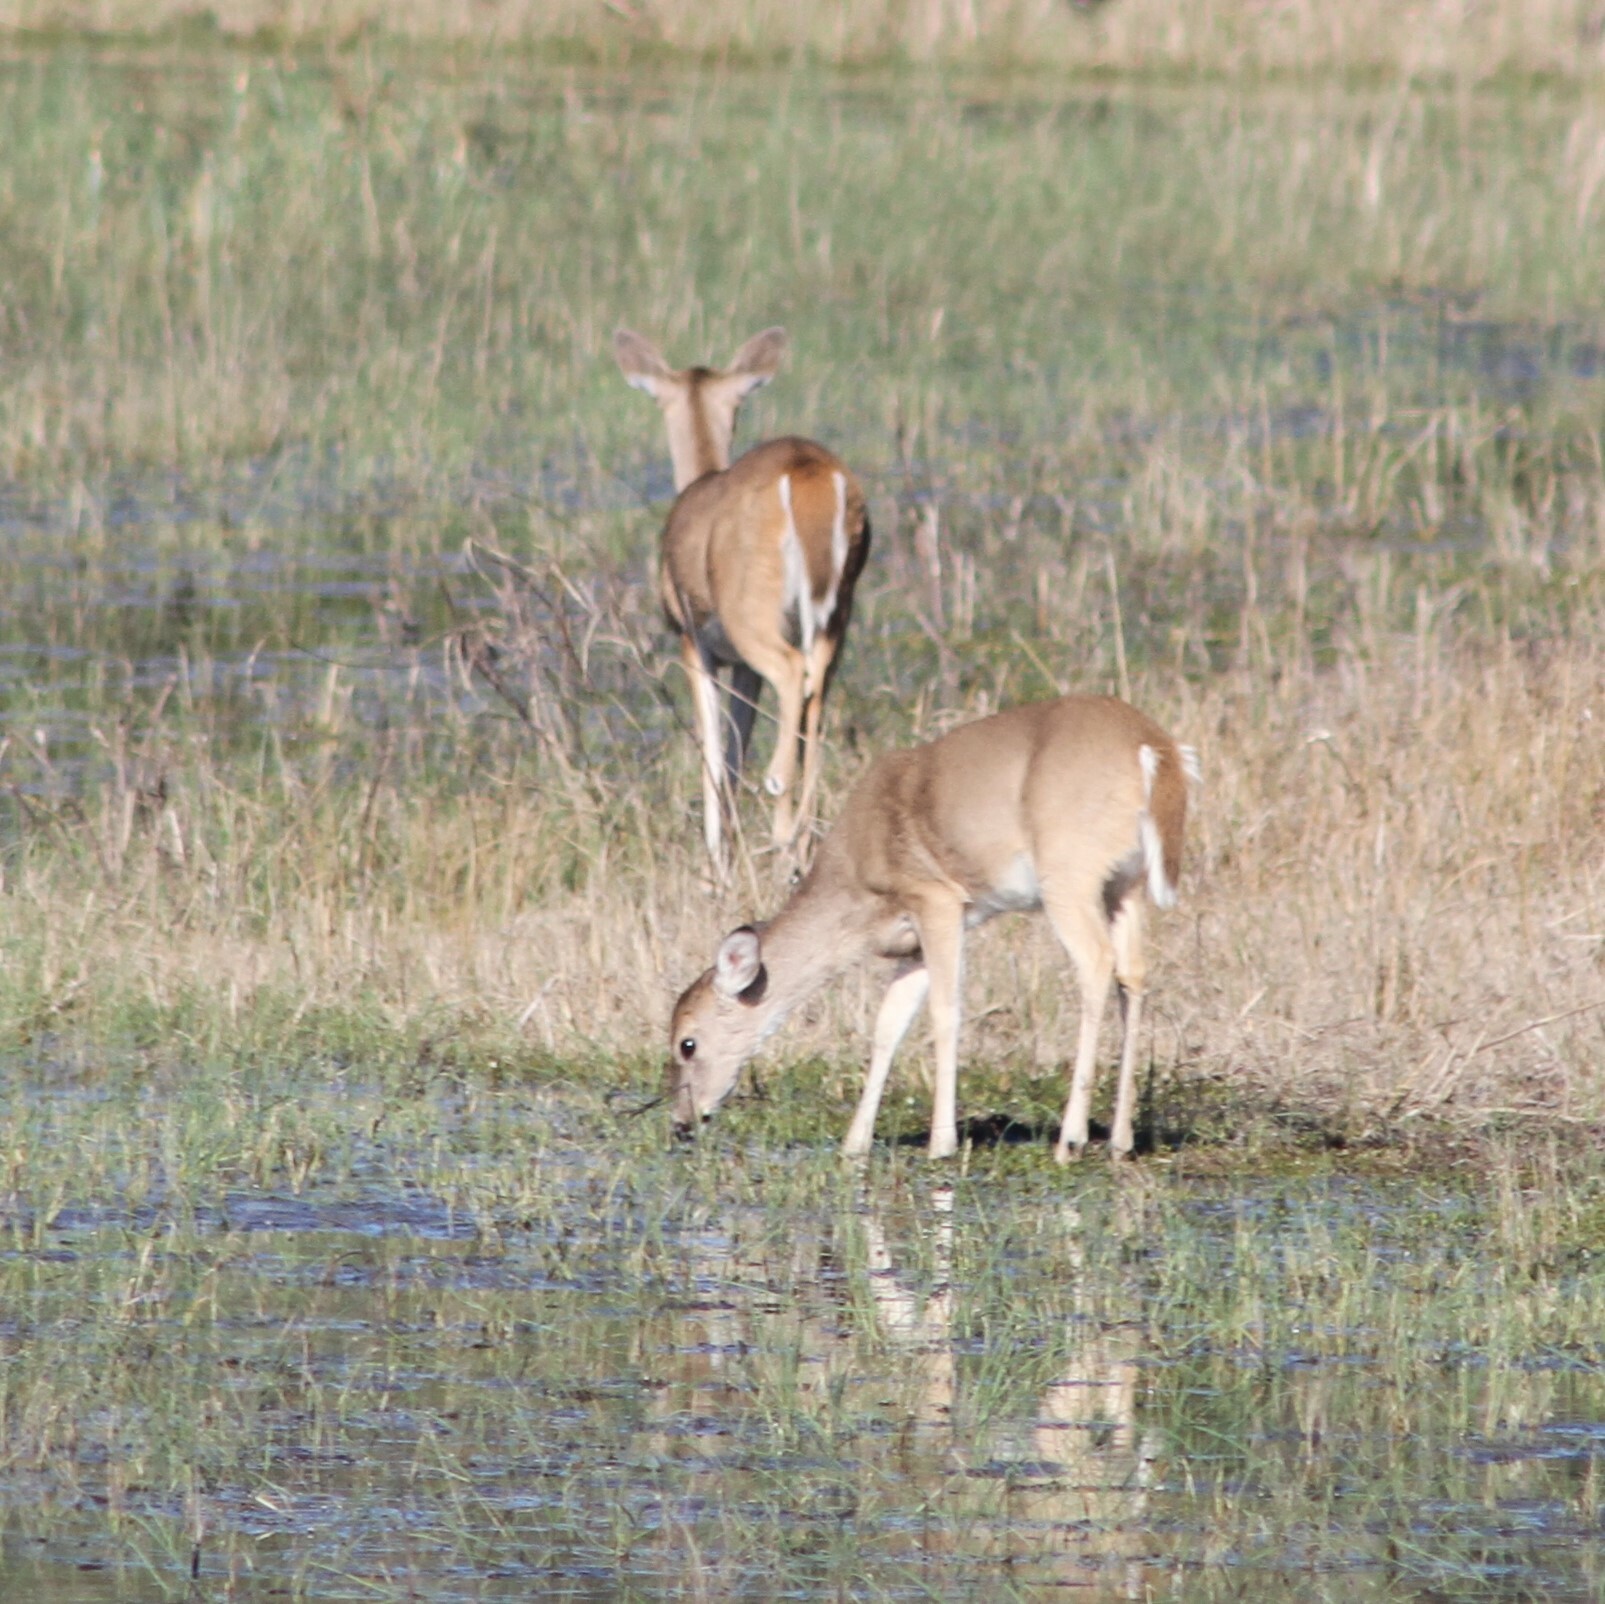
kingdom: Animalia
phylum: Chordata
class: Mammalia
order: Artiodactyla
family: Cervidae
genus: Odocoileus
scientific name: Odocoileus virginianus
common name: White-tailed deer
